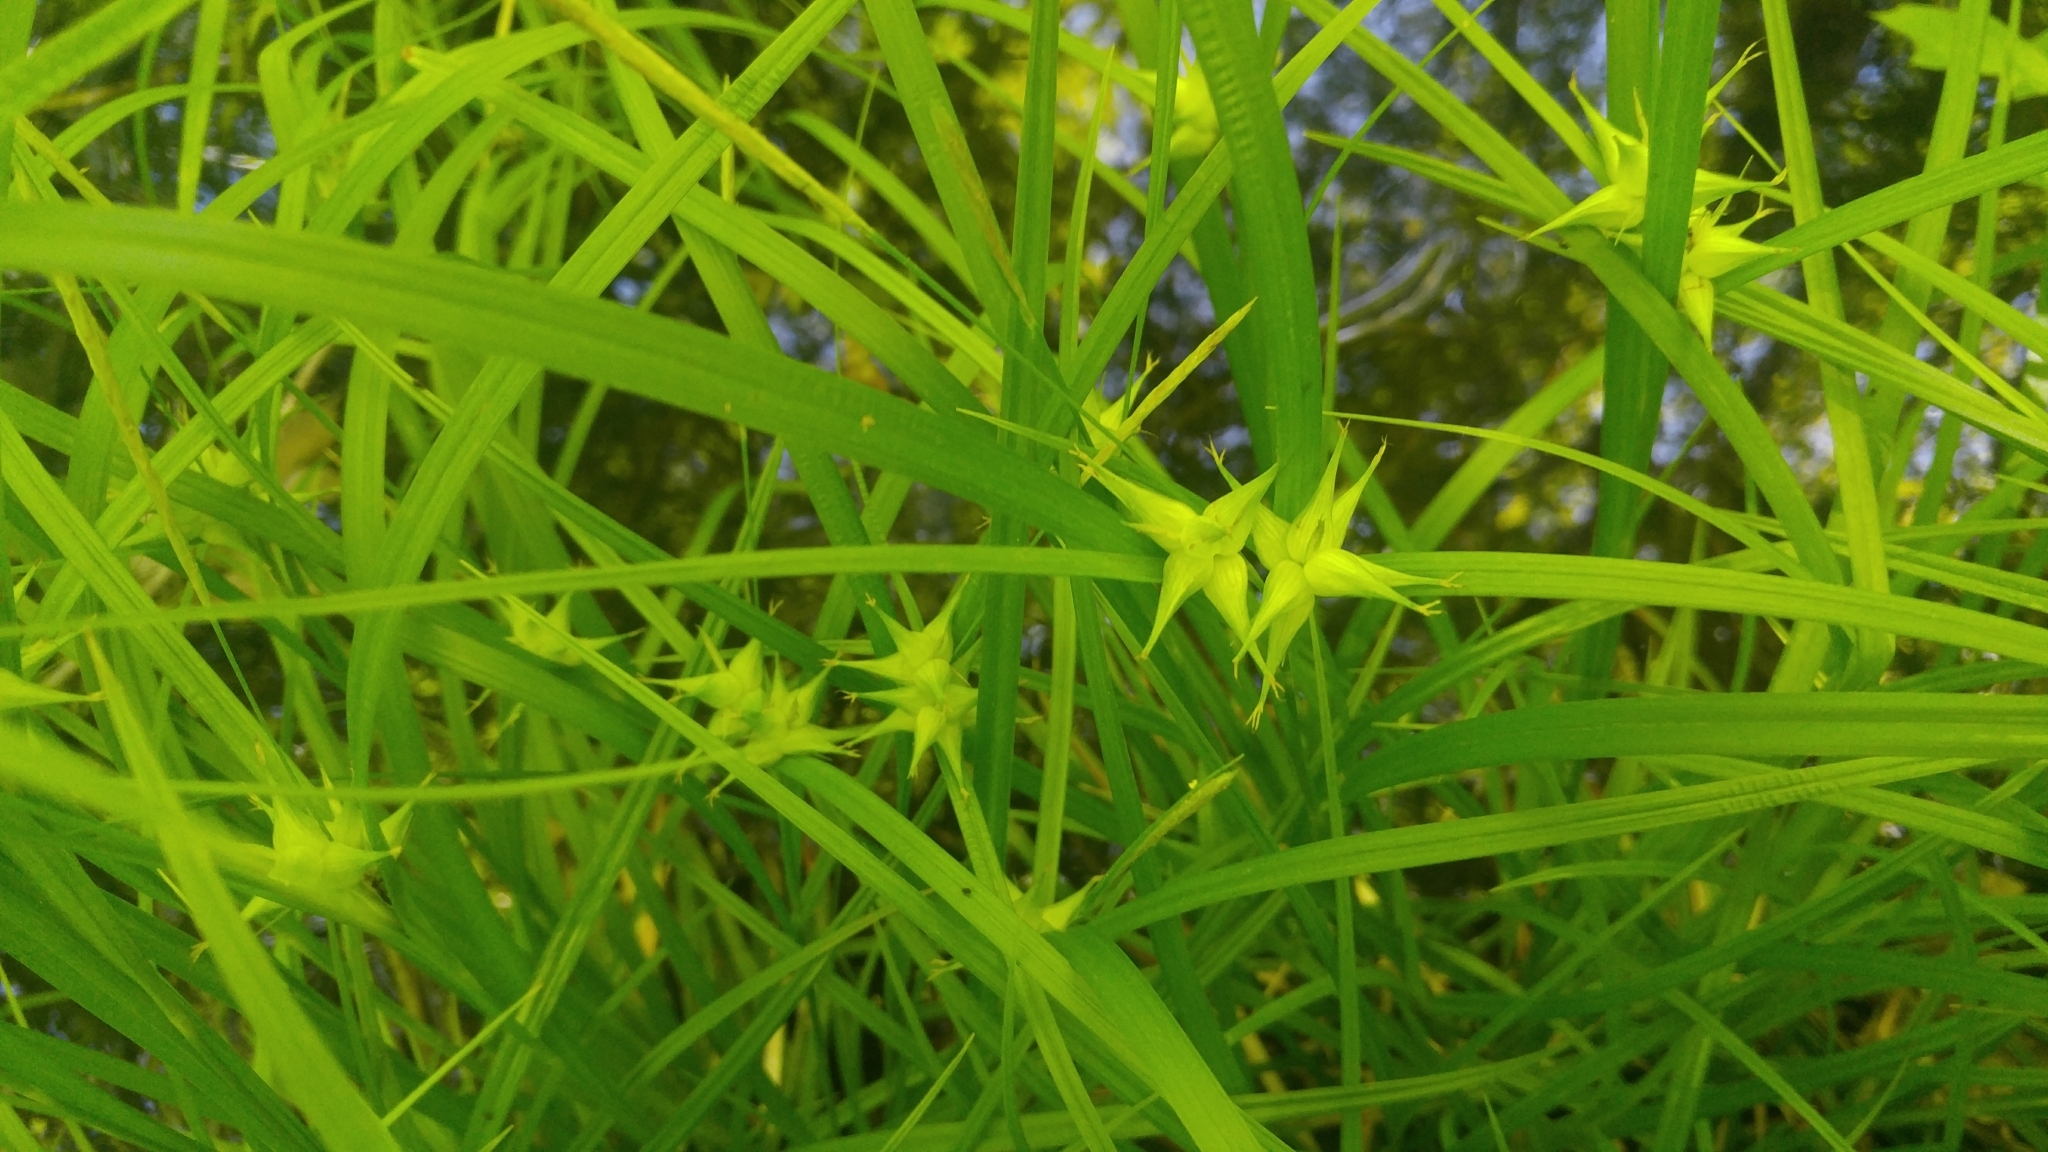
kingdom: Plantae
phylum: Tracheophyta
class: Liliopsida
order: Poales
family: Cyperaceae
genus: Carex
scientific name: Carex intumescens
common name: Greater bladder sedge
